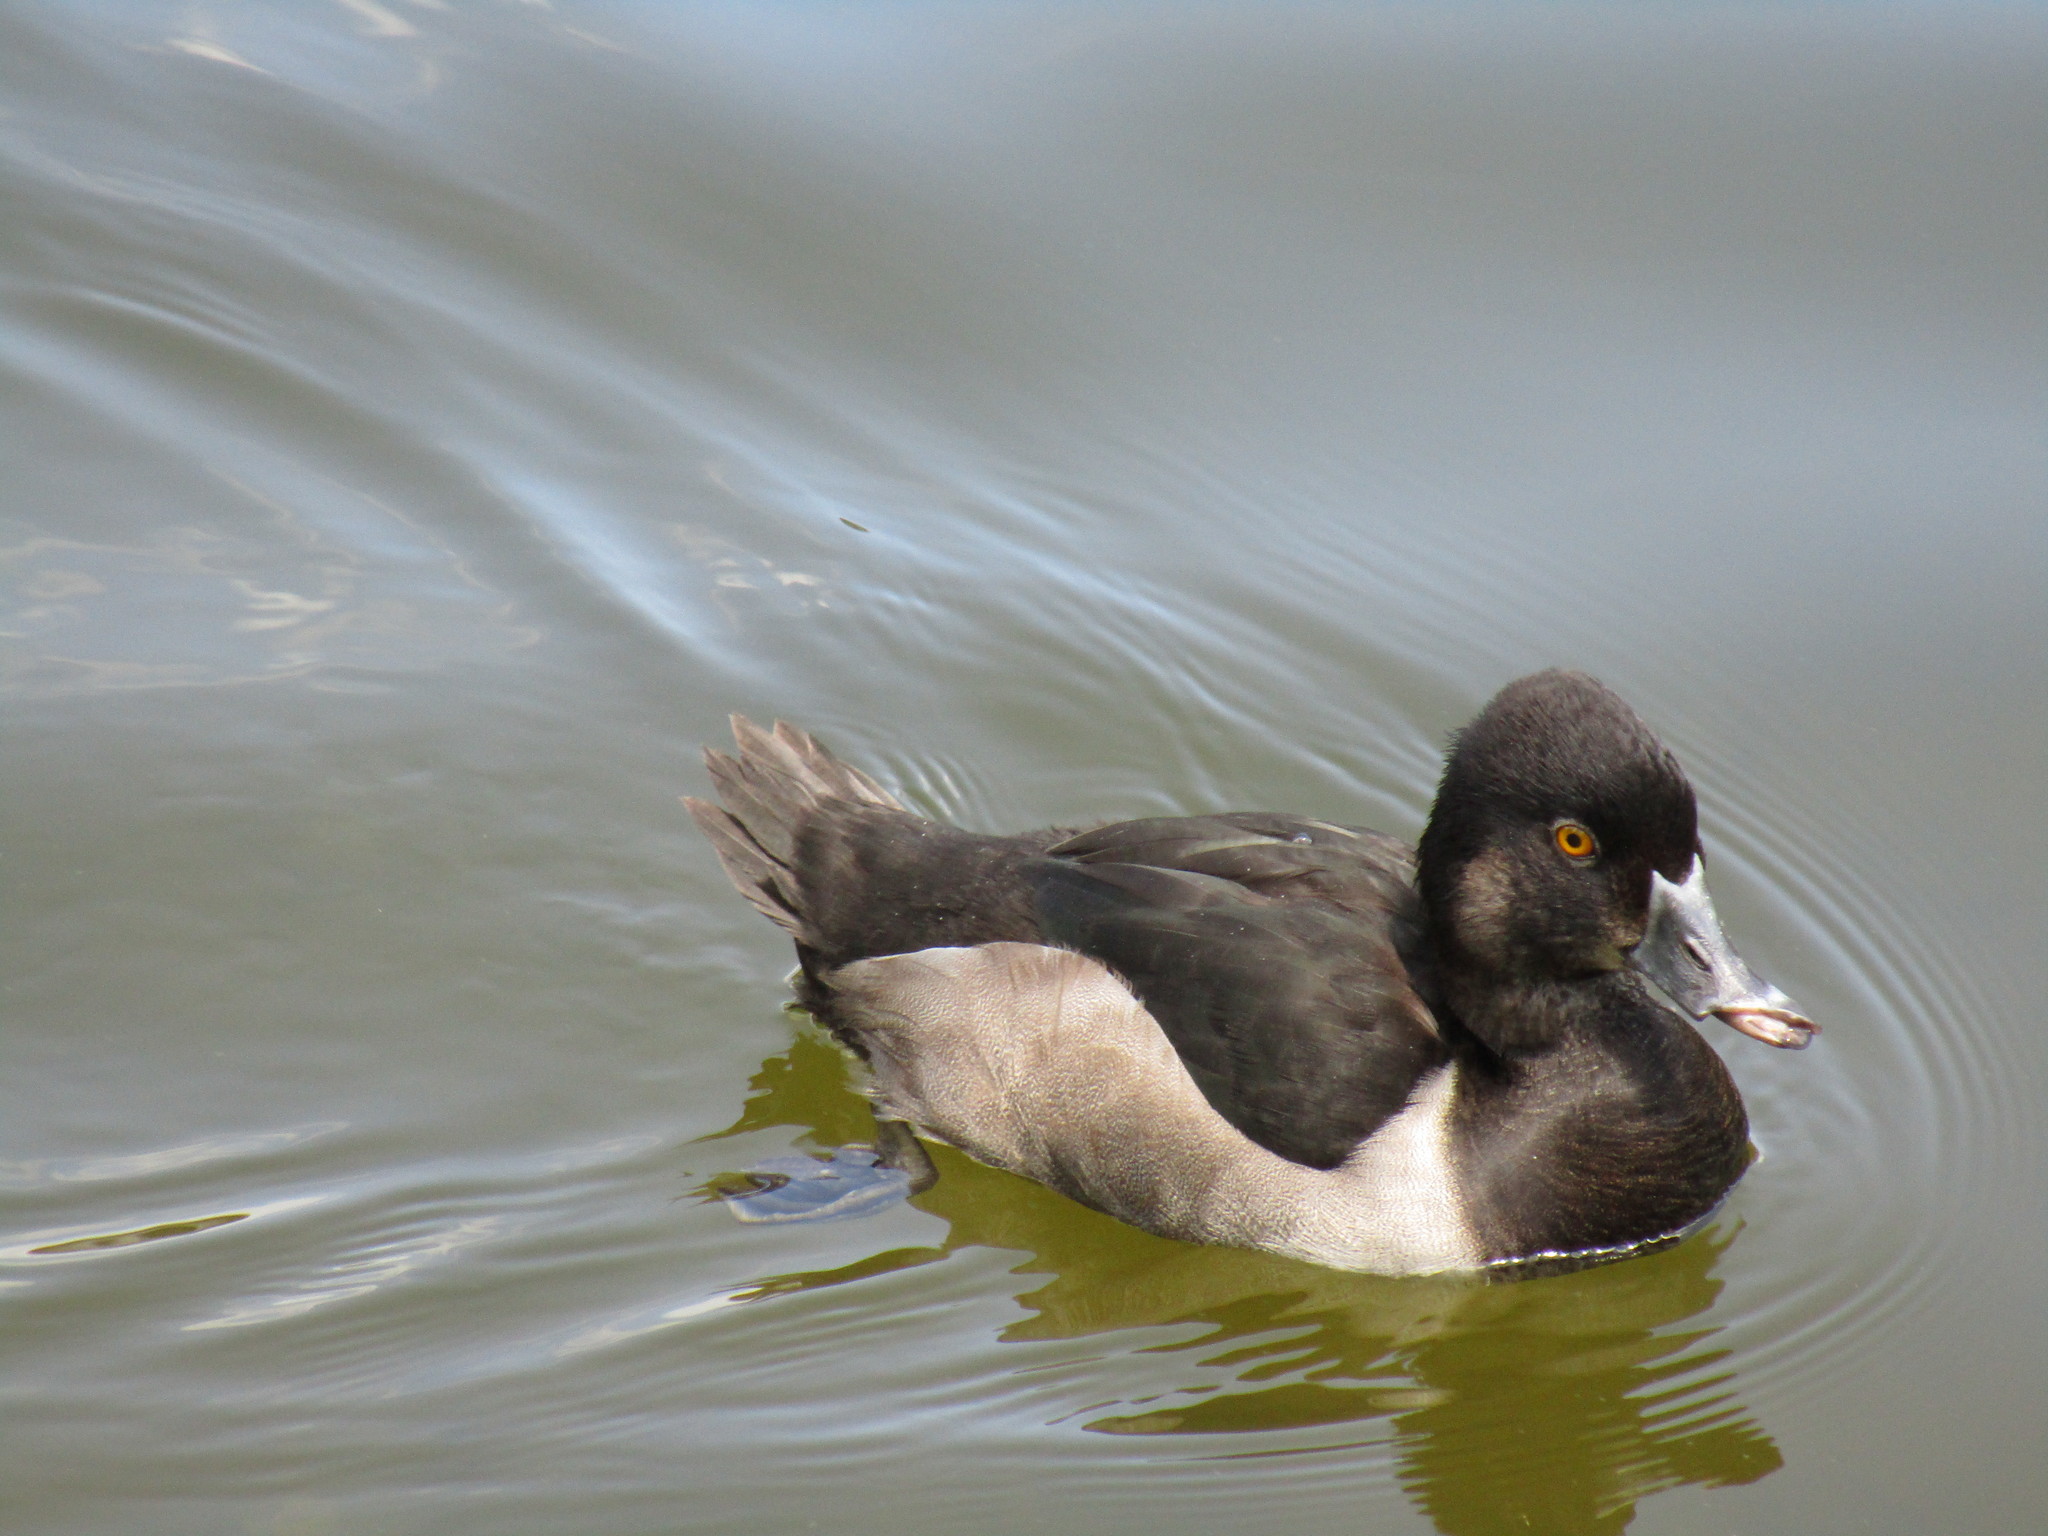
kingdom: Animalia
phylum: Chordata
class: Aves
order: Anseriformes
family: Anatidae
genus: Aythya
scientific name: Aythya collaris
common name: Ring-necked duck
